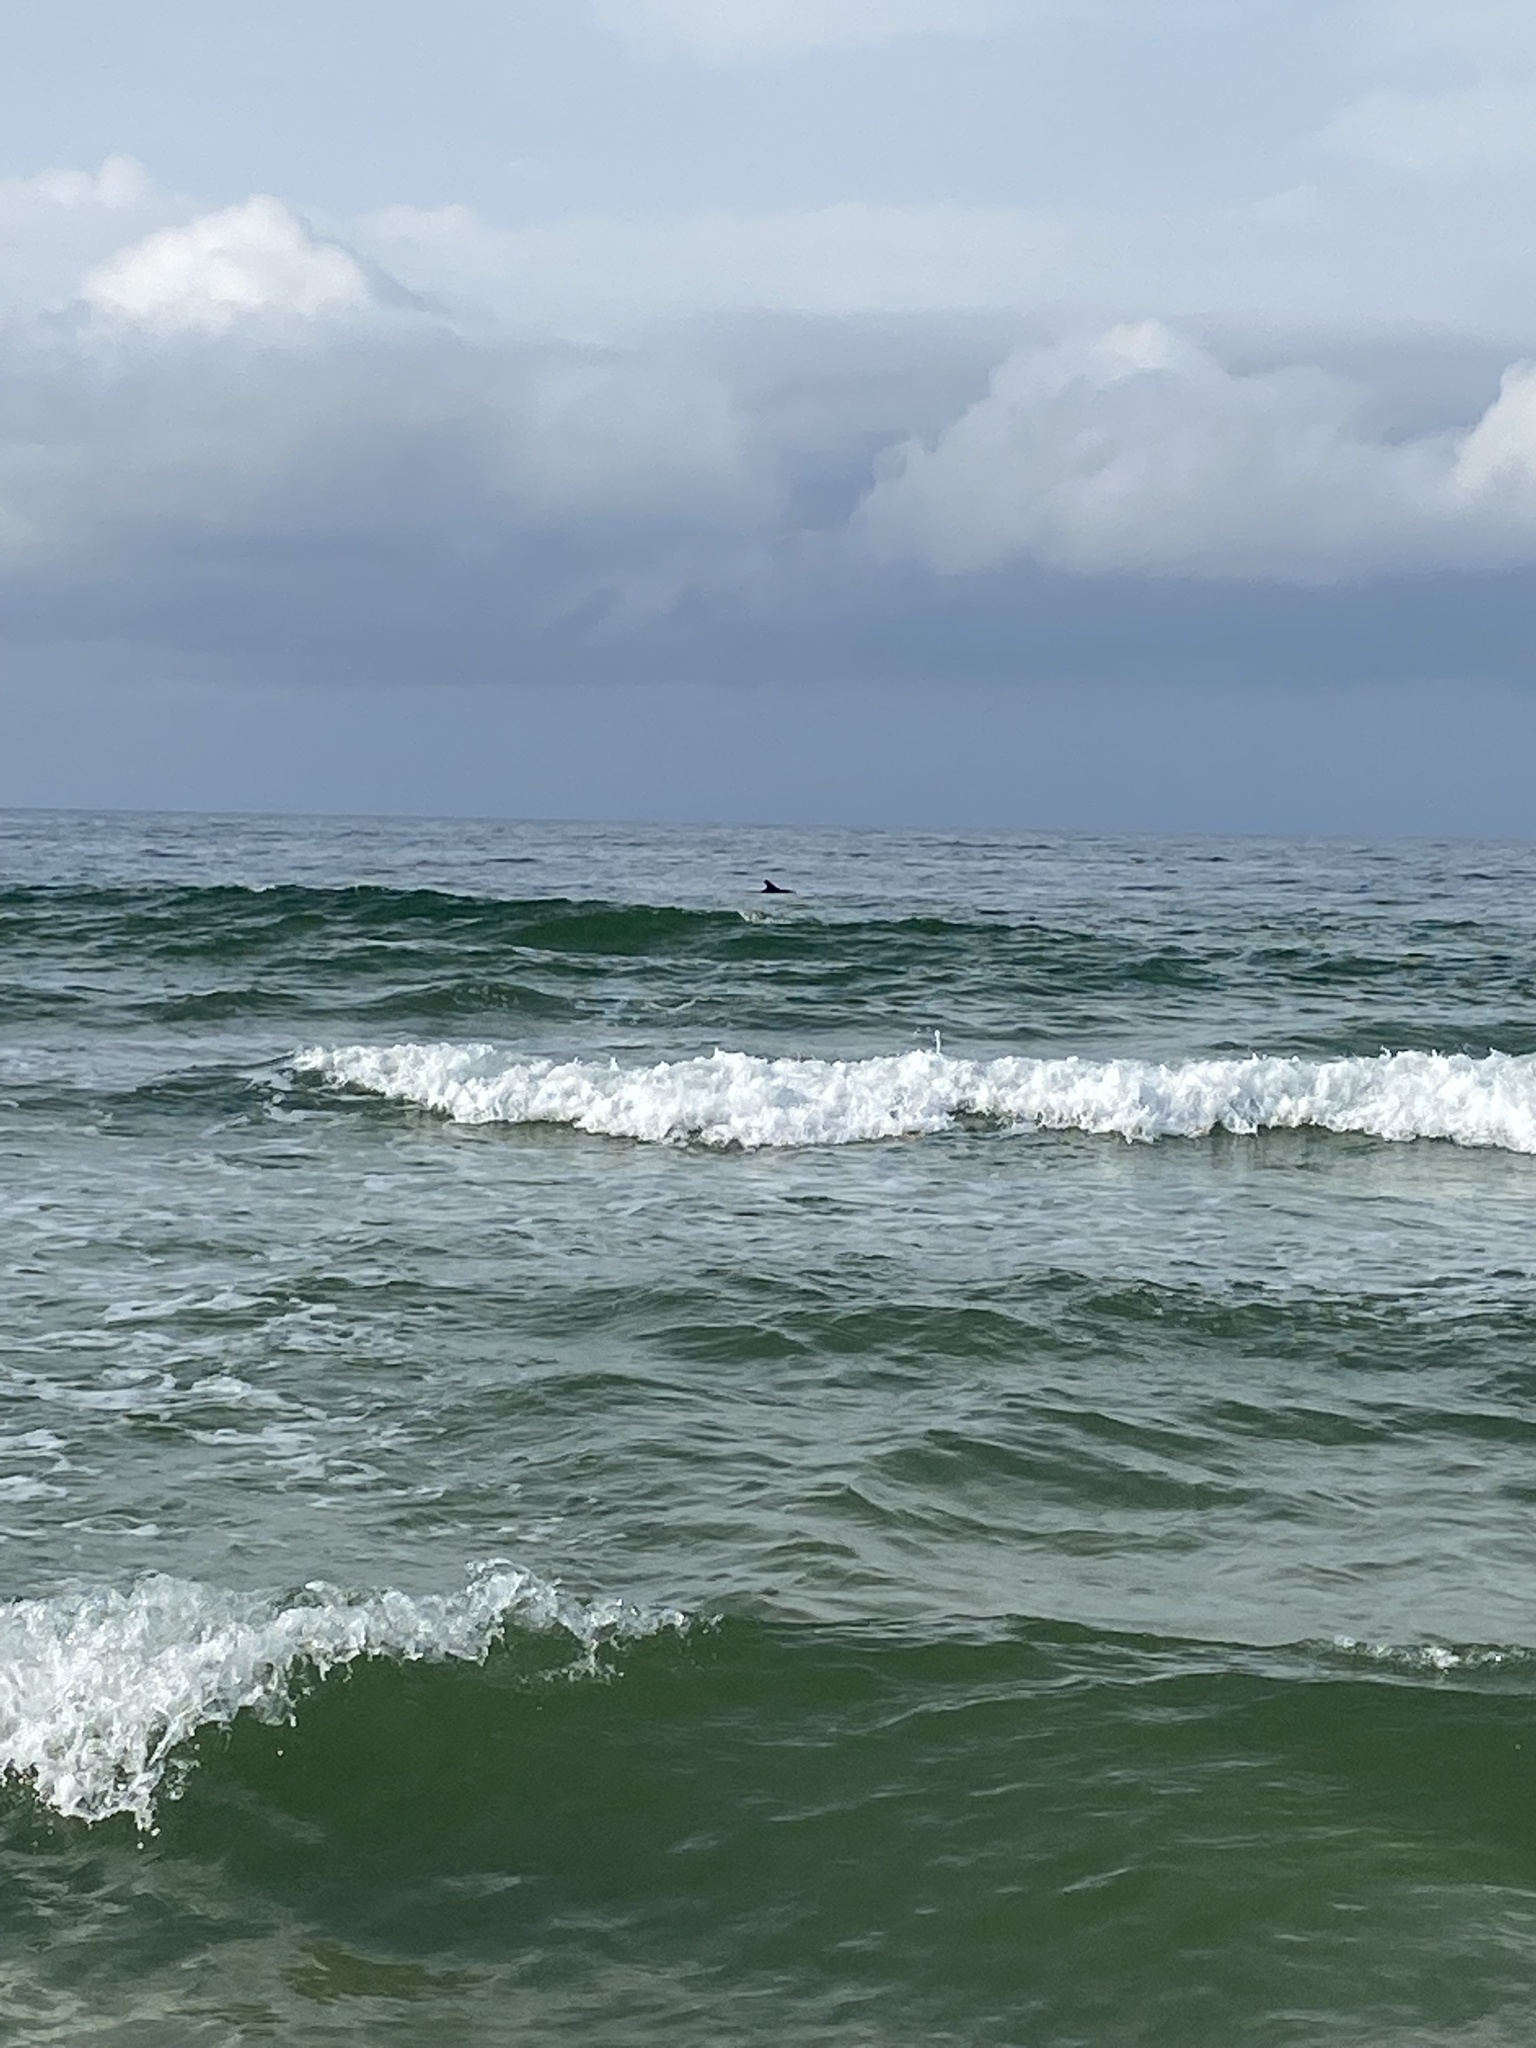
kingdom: Animalia
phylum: Chordata
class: Mammalia
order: Cetacea
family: Delphinidae
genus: Tursiops
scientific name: Tursiops truncatus
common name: Bottlenose dolphin
